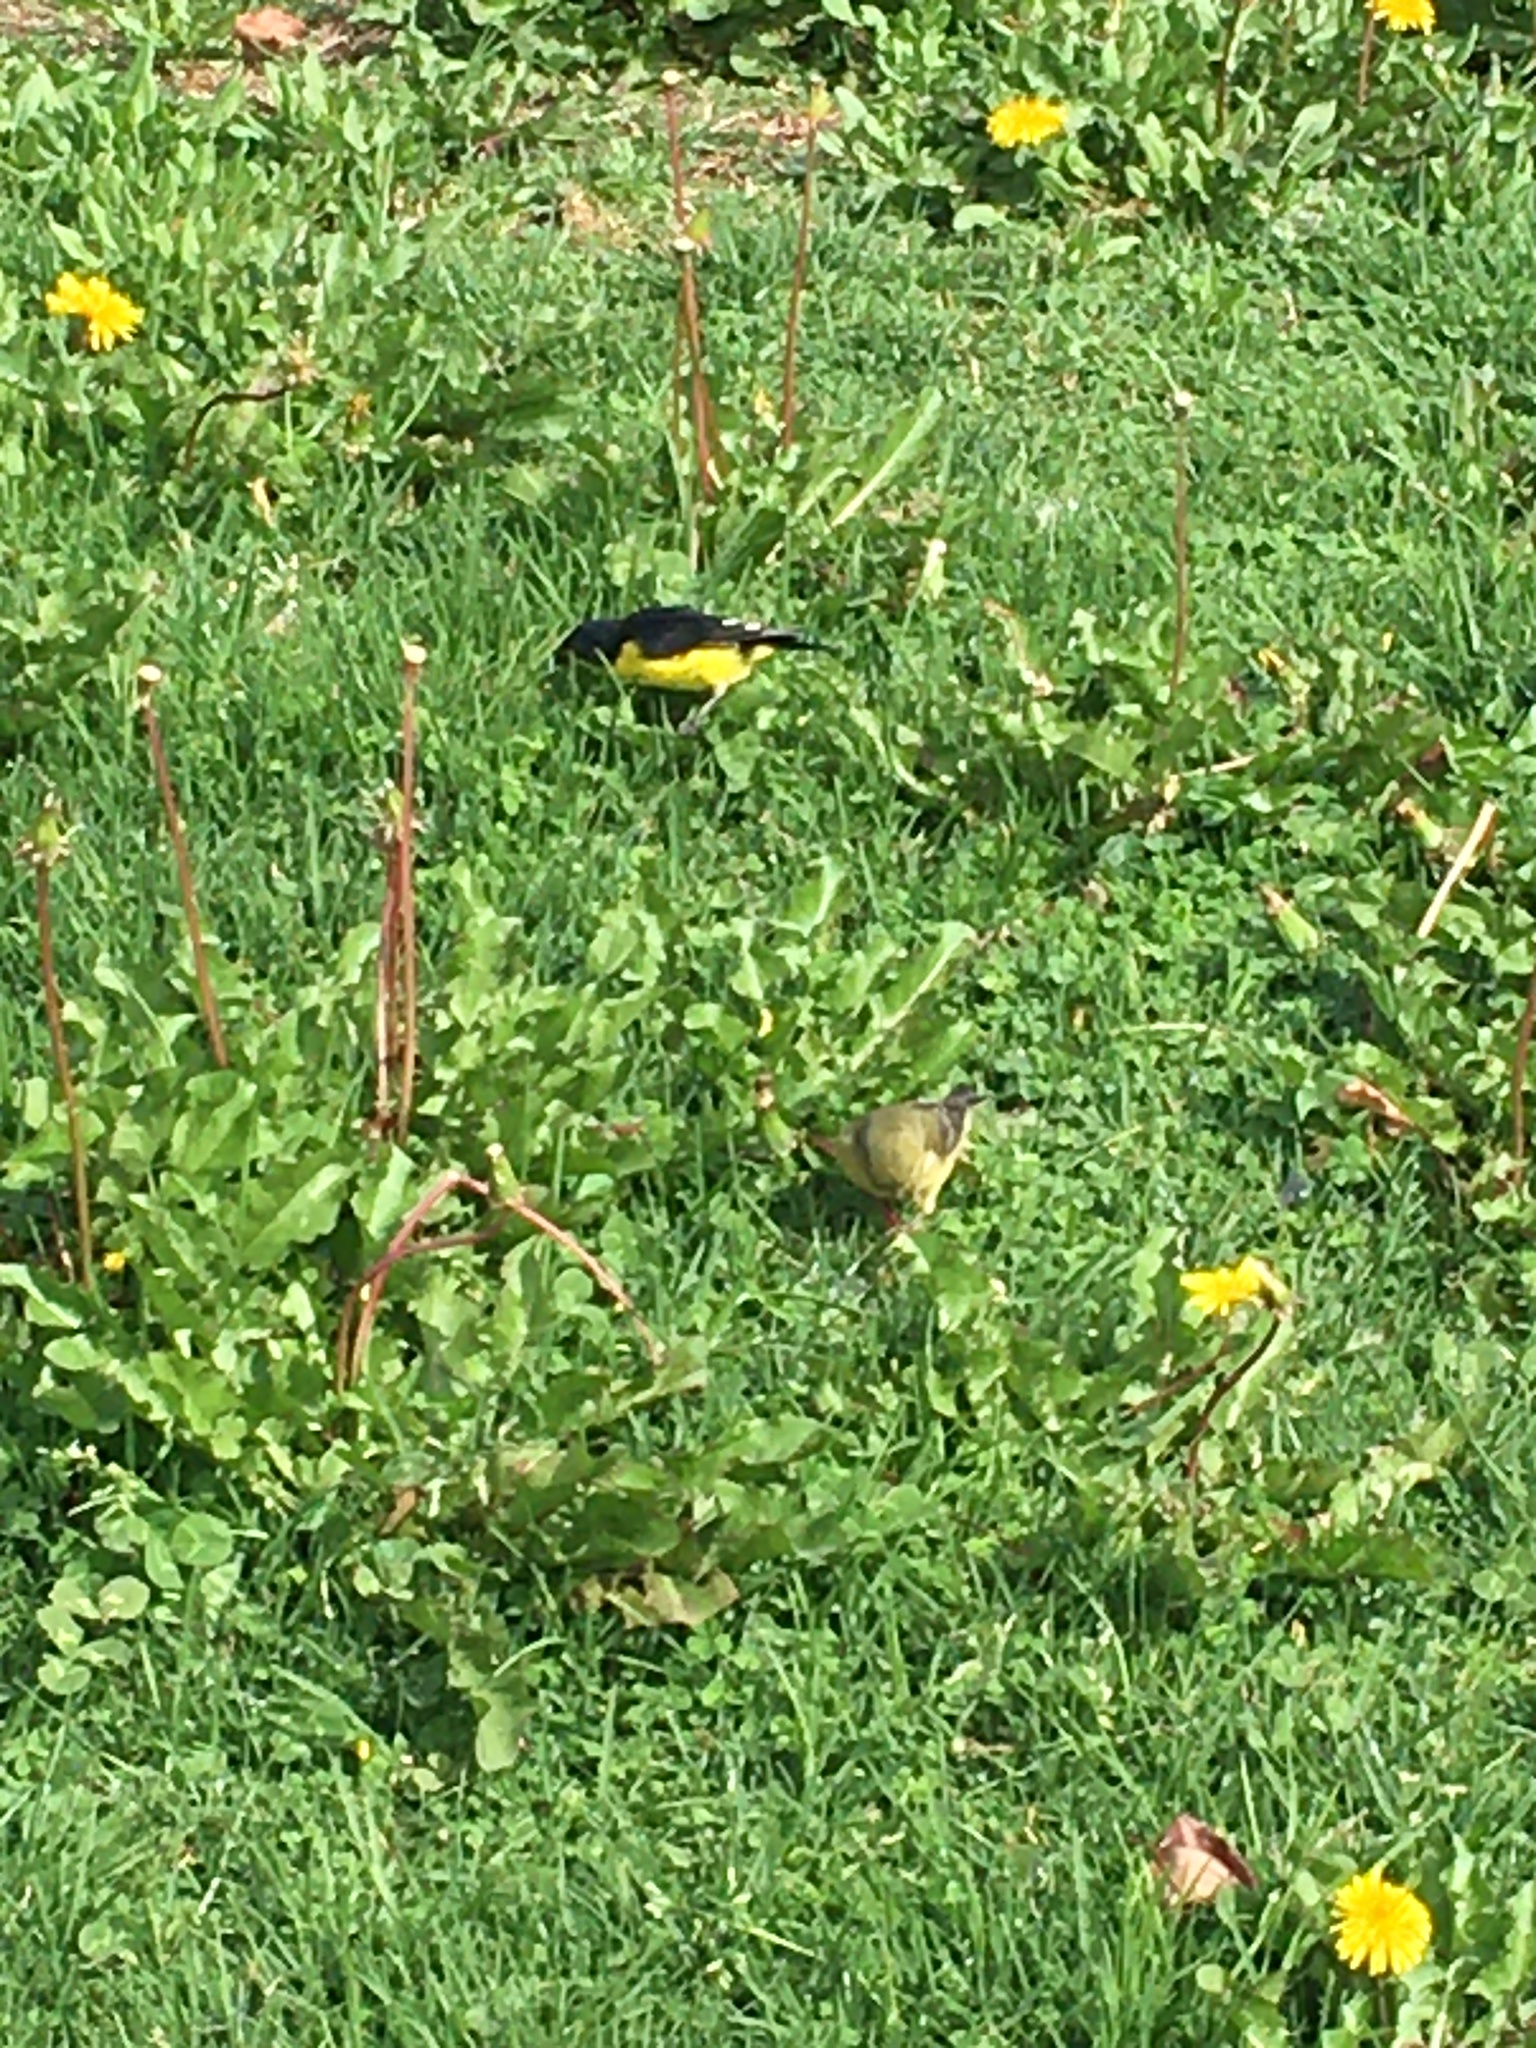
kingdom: Animalia
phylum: Chordata
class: Aves
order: Passeriformes
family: Fringillidae
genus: Spinus
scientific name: Spinus psaltria
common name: Lesser goldfinch
